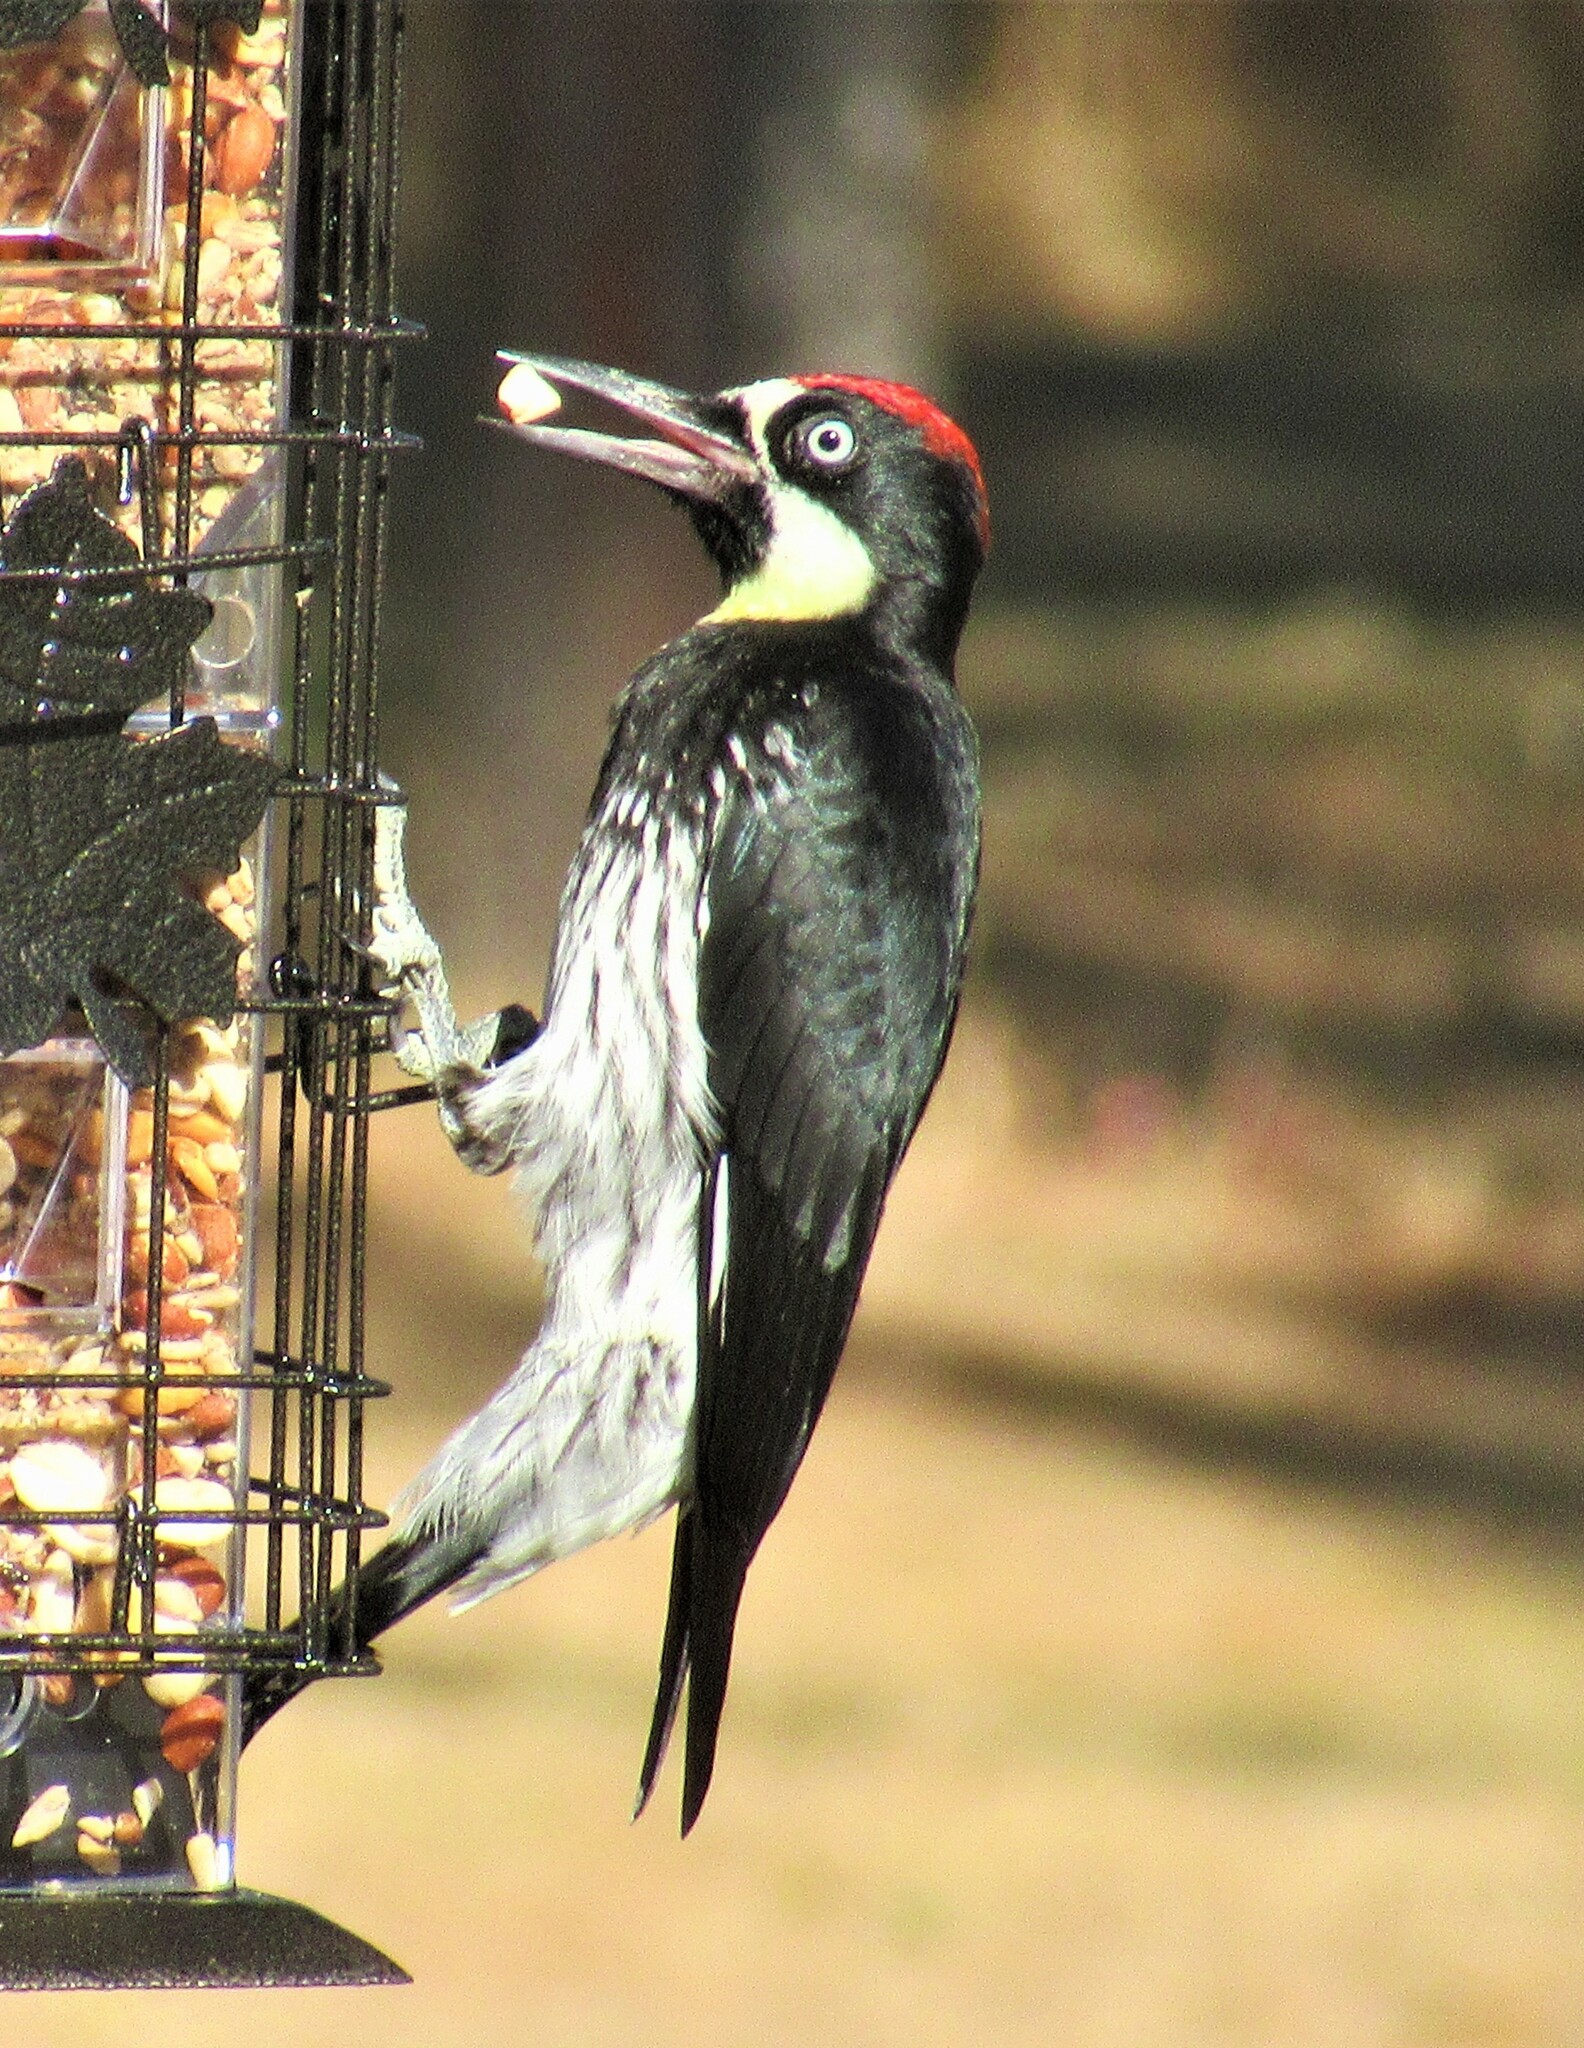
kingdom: Animalia
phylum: Chordata
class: Aves
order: Piciformes
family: Picidae
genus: Melanerpes
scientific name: Melanerpes formicivorus
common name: Acorn woodpecker
